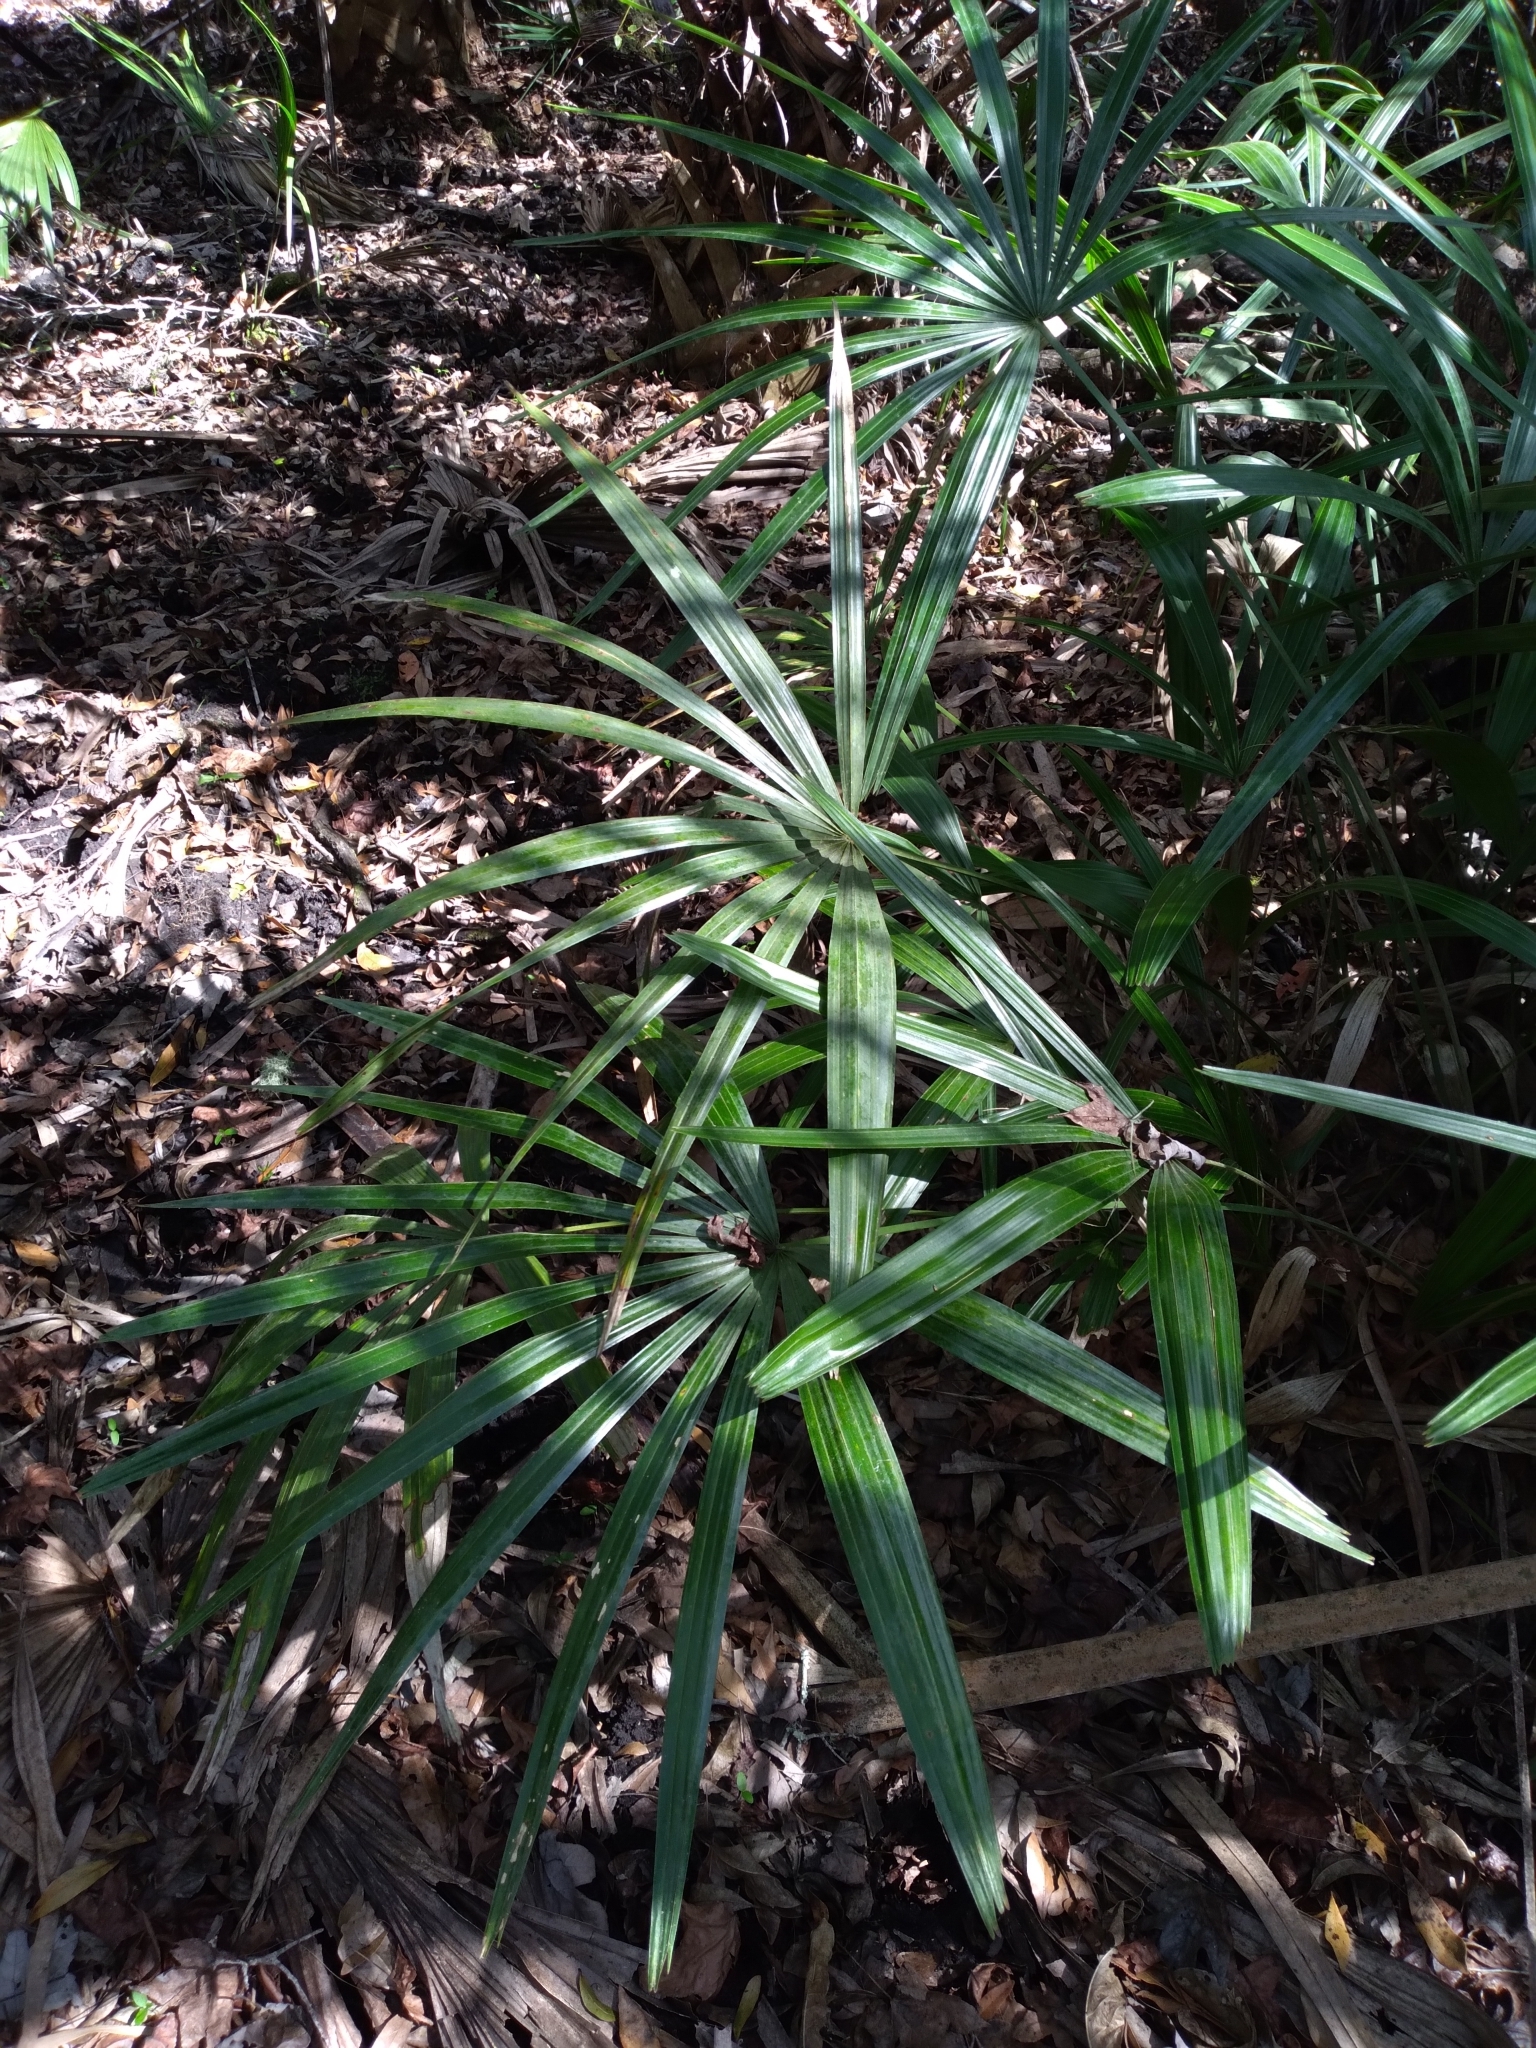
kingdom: Plantae
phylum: Tracheophyta
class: Liliopsida
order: Arecales
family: Arecaceae
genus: Rhapidophyllum
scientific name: Rhapidophyllum hystrix
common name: Porcupine palm
